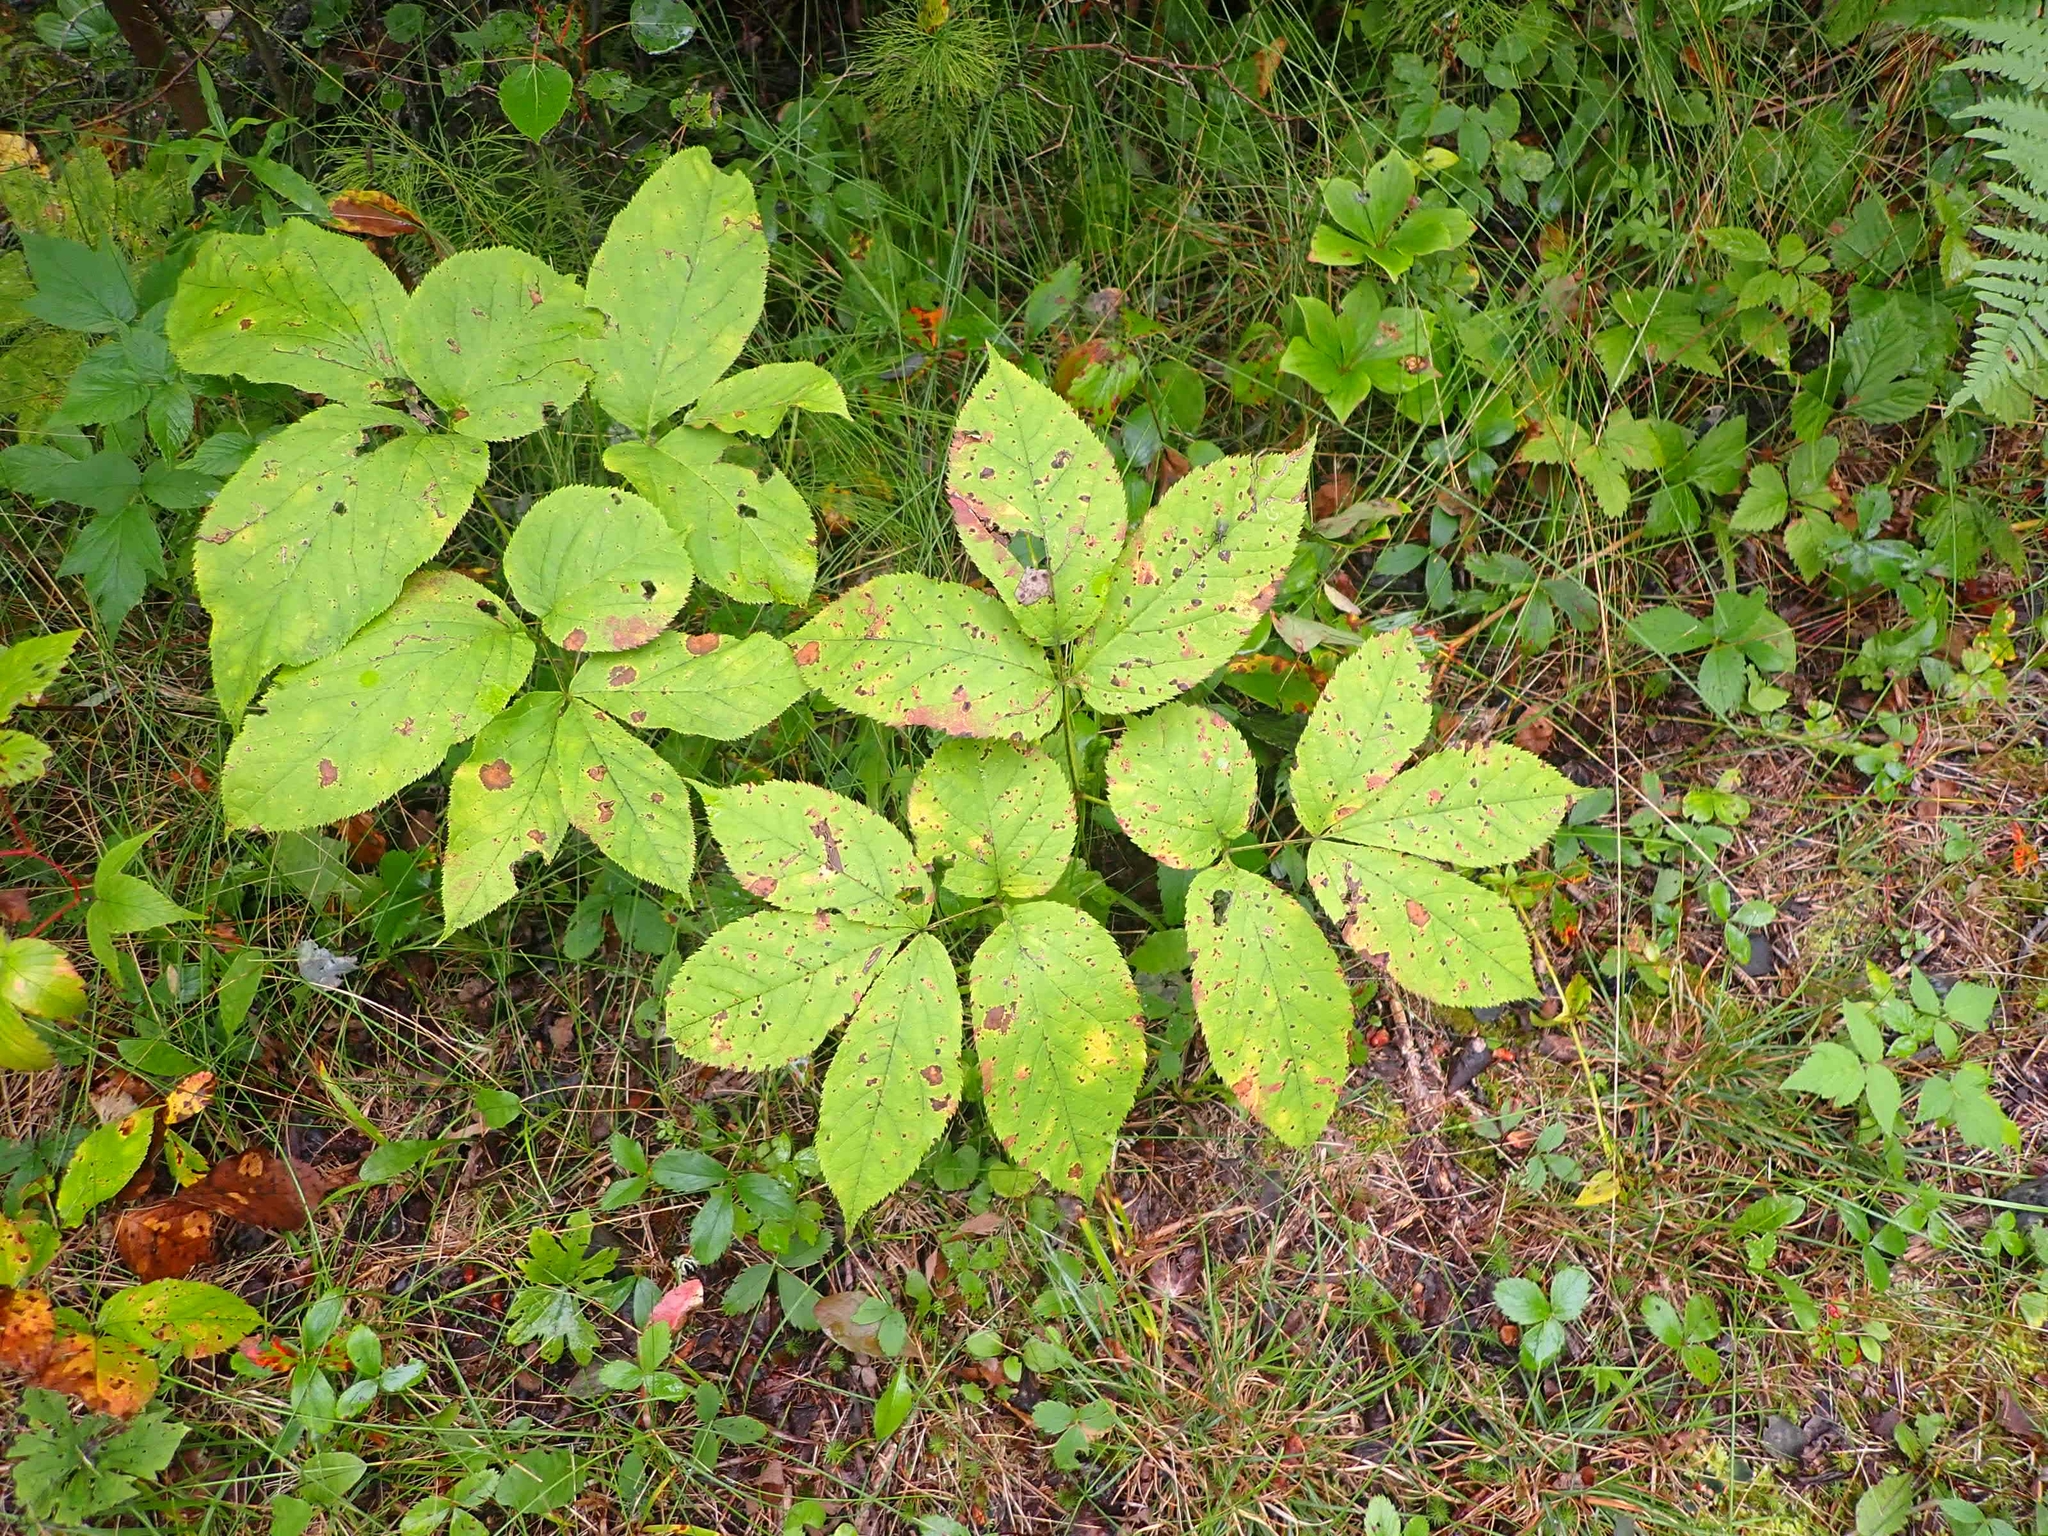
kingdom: Plantae
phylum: Tracheophyta
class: Magnoliopsida
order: Apiales
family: Araliaceae
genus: Aralia
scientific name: Aralia nudicaulis
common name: Wild sarsaparilla
